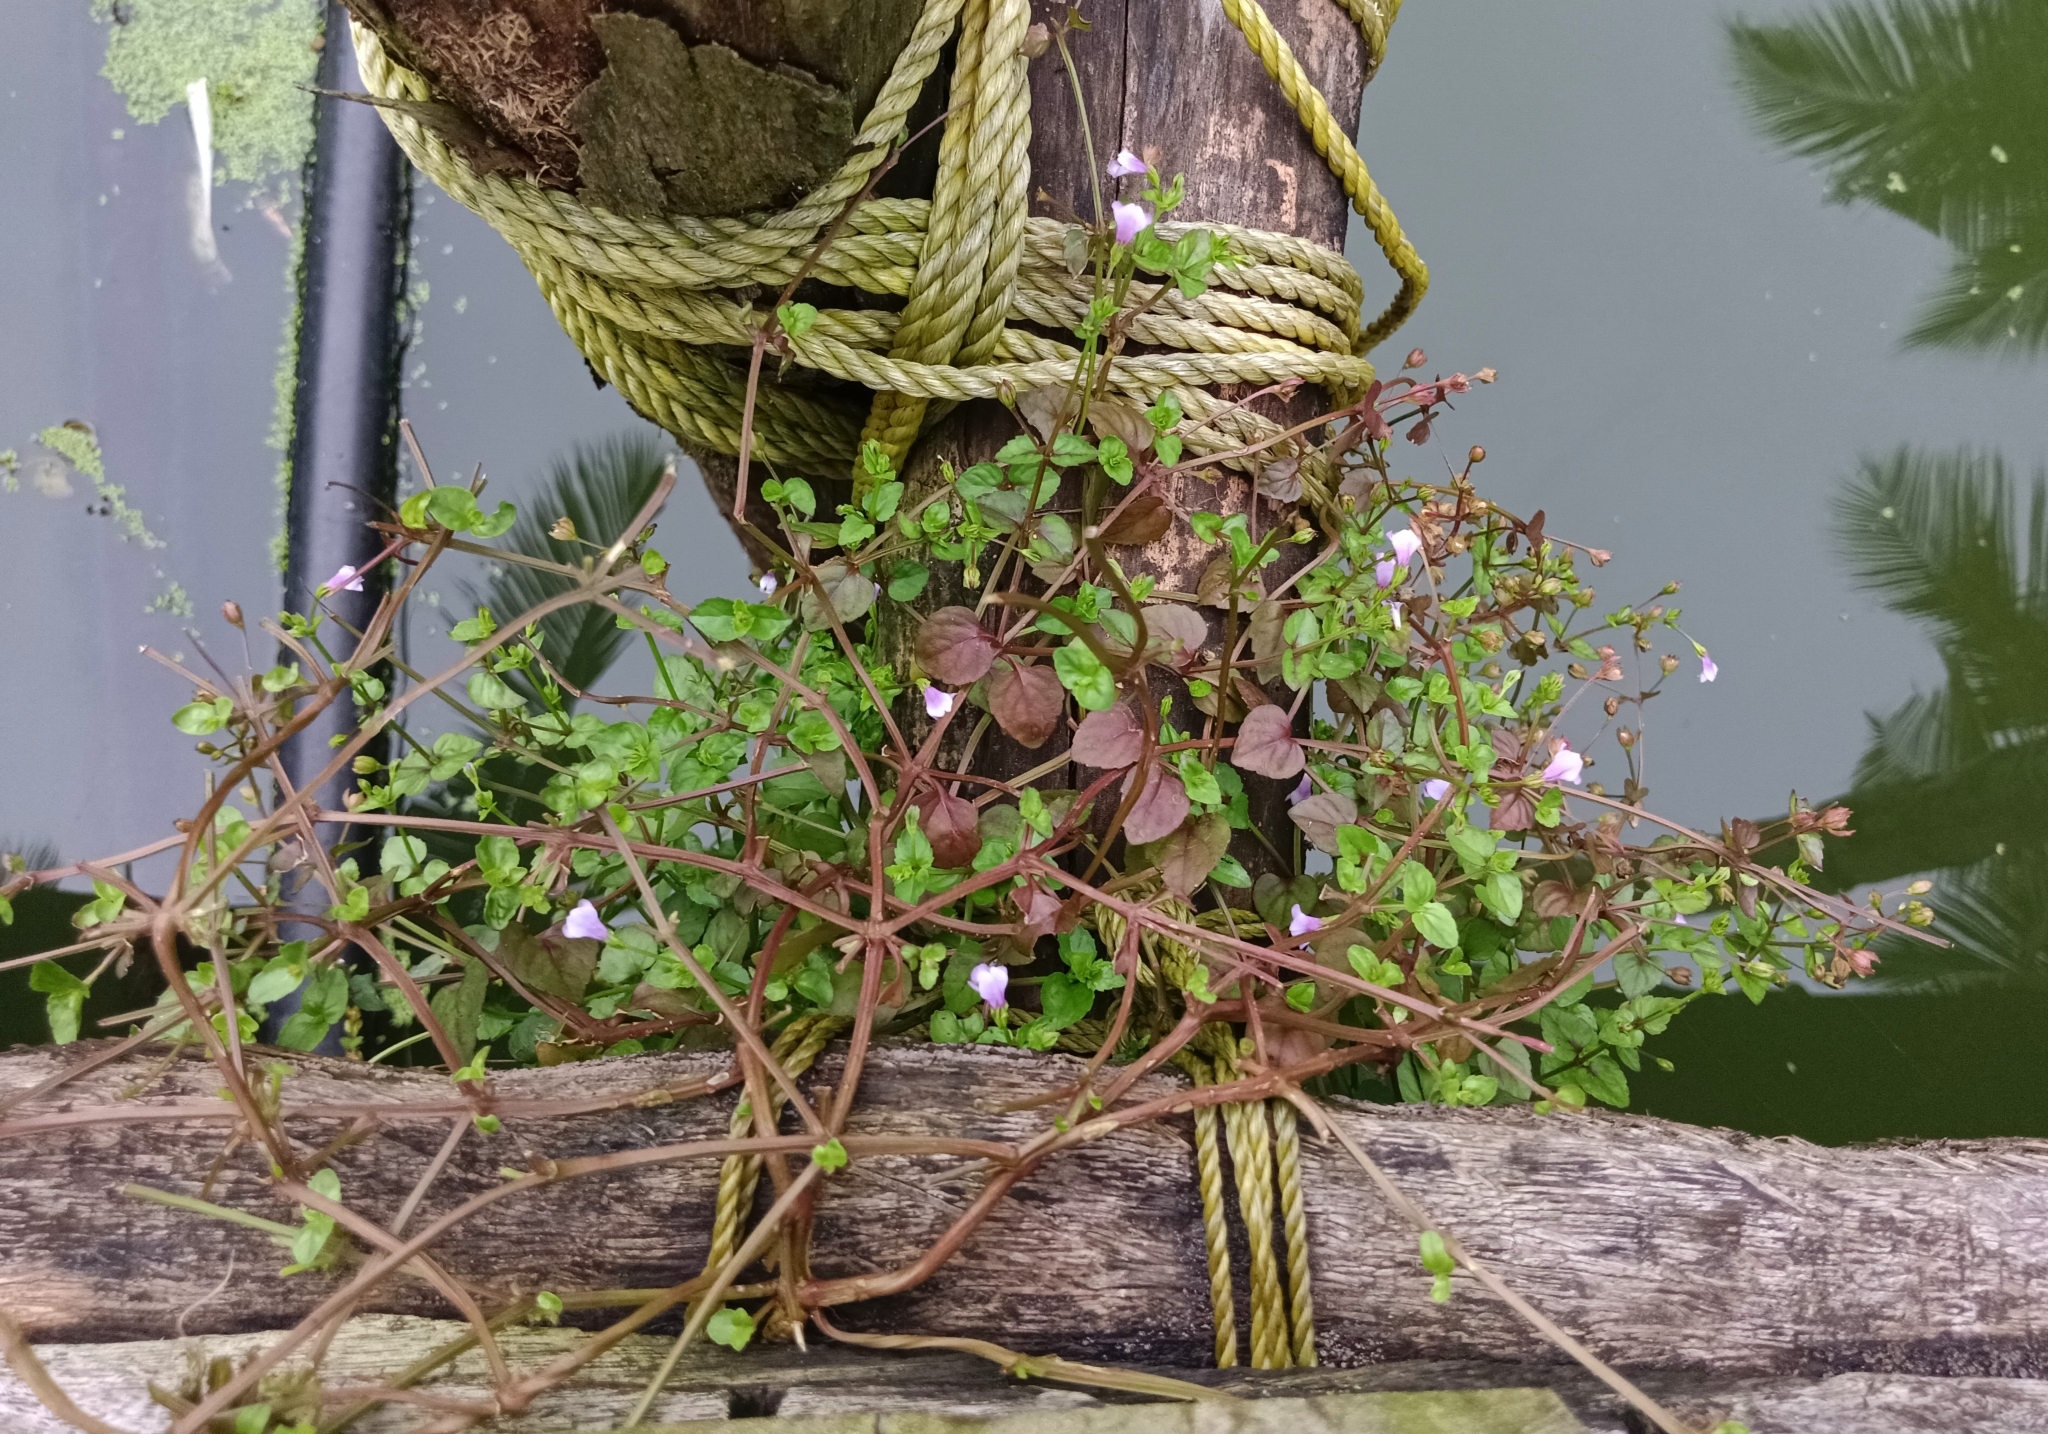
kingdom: Plantae
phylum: Tracheophyta
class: Magnoliopsida
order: Lamiales
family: Linderniaceae
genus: Torenia
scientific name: Torenia crustacea
